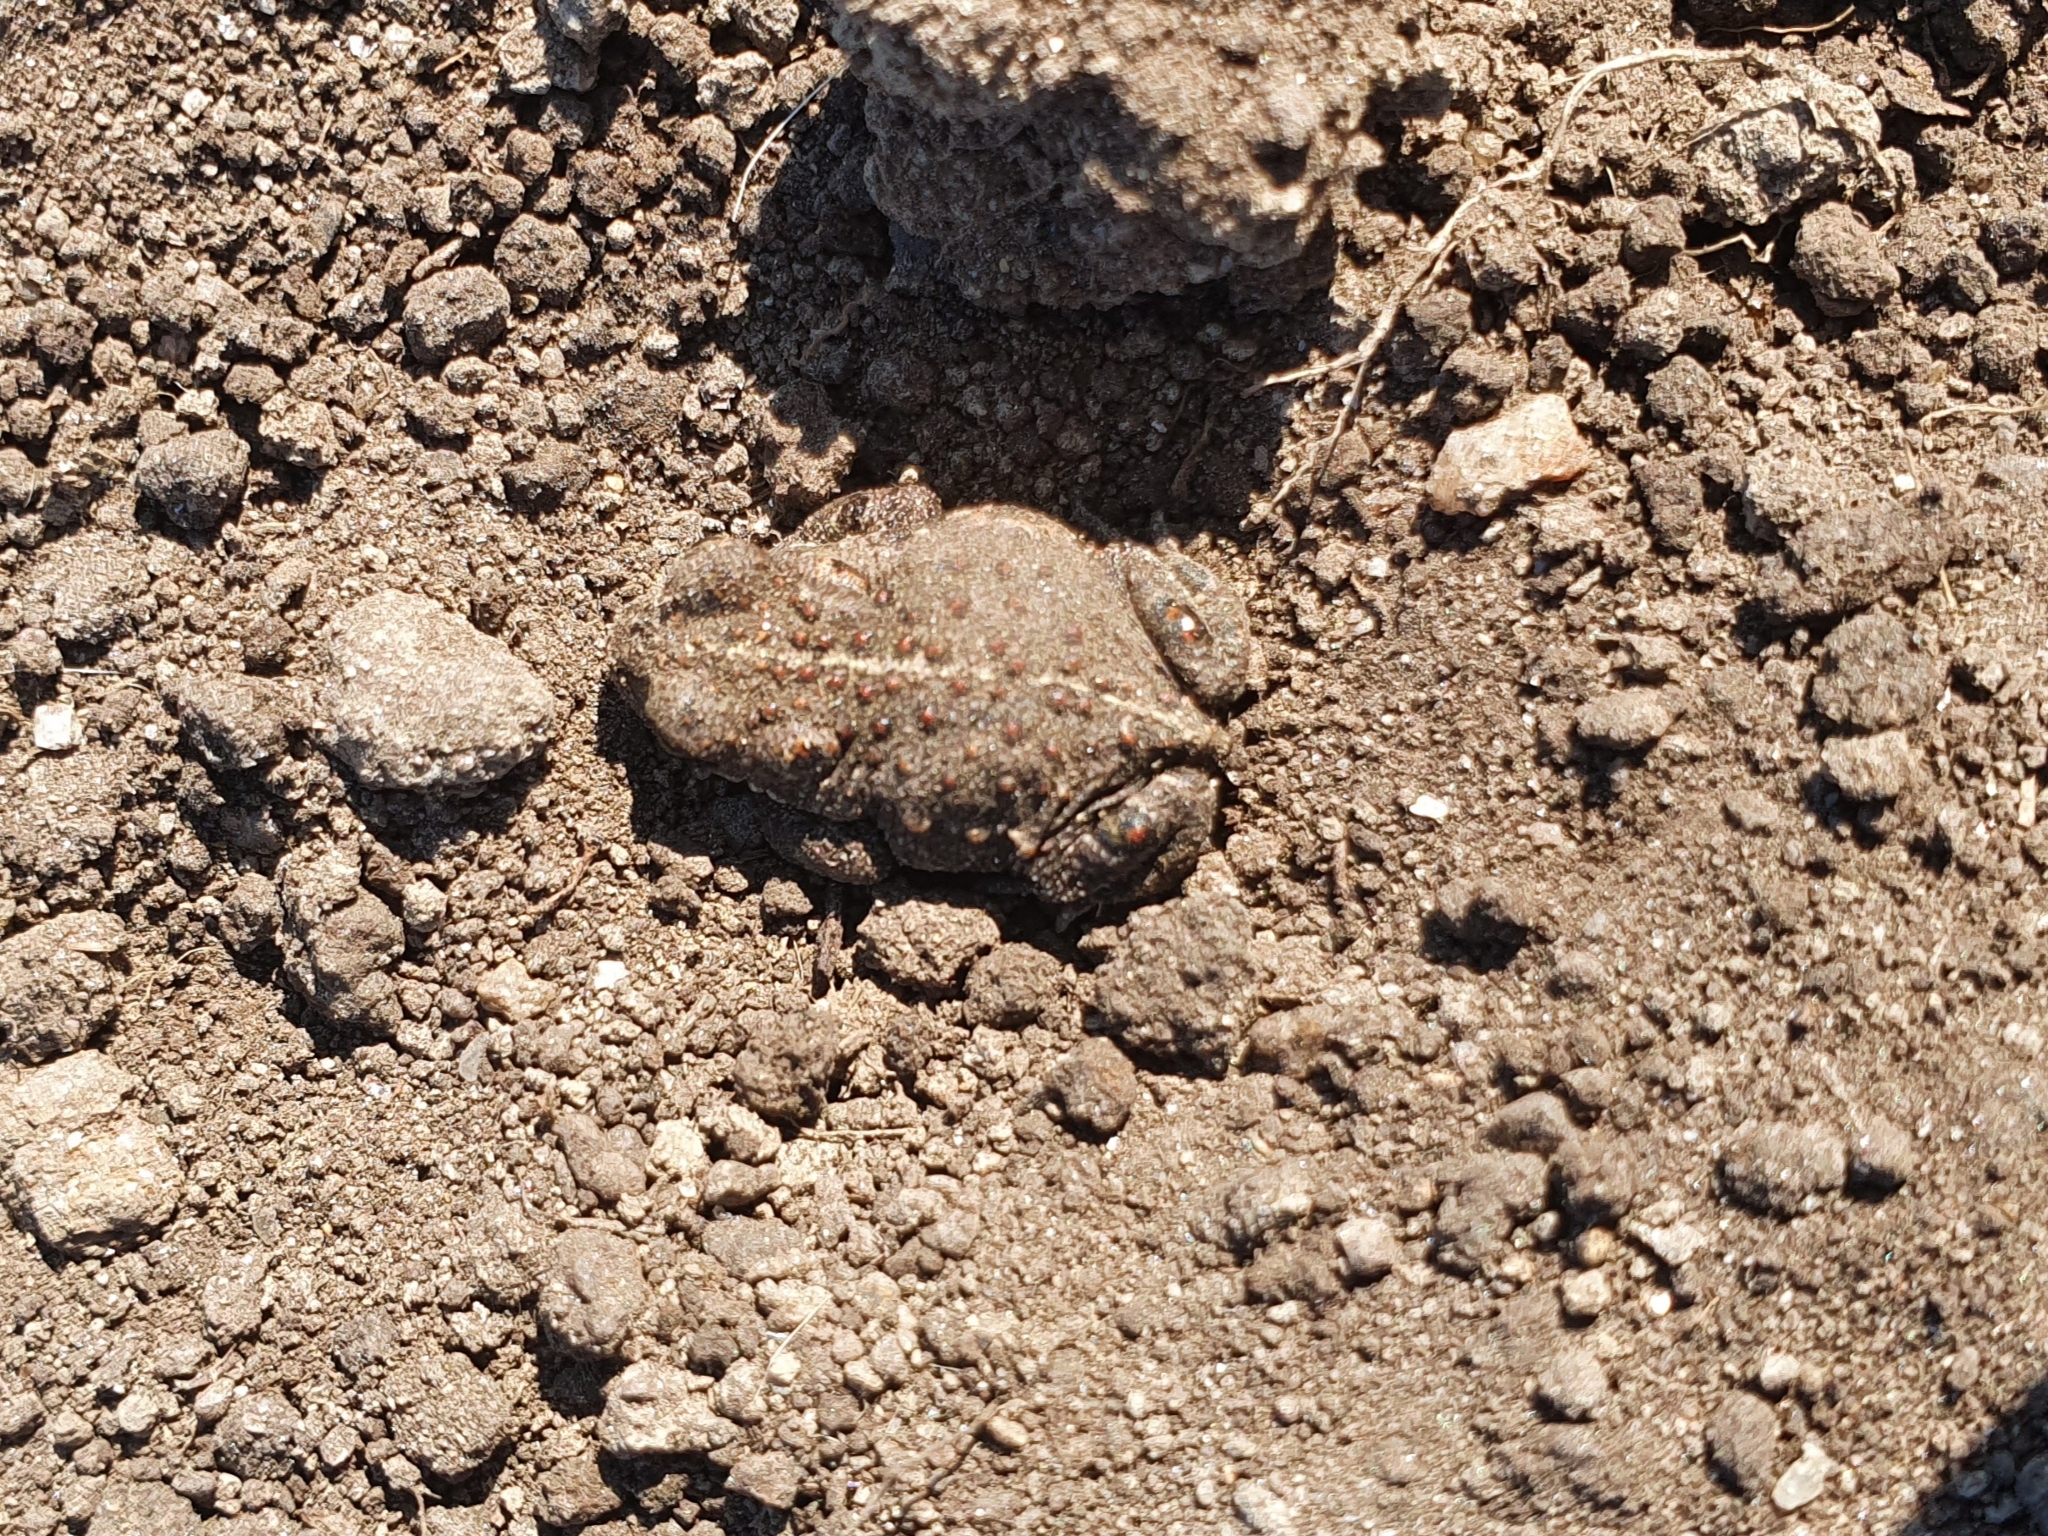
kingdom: Animalia
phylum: Chordata
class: Amphibia
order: Anura
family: Bufonidae
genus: Epidalea
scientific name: Epidalea calamita
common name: Natterjack toad
